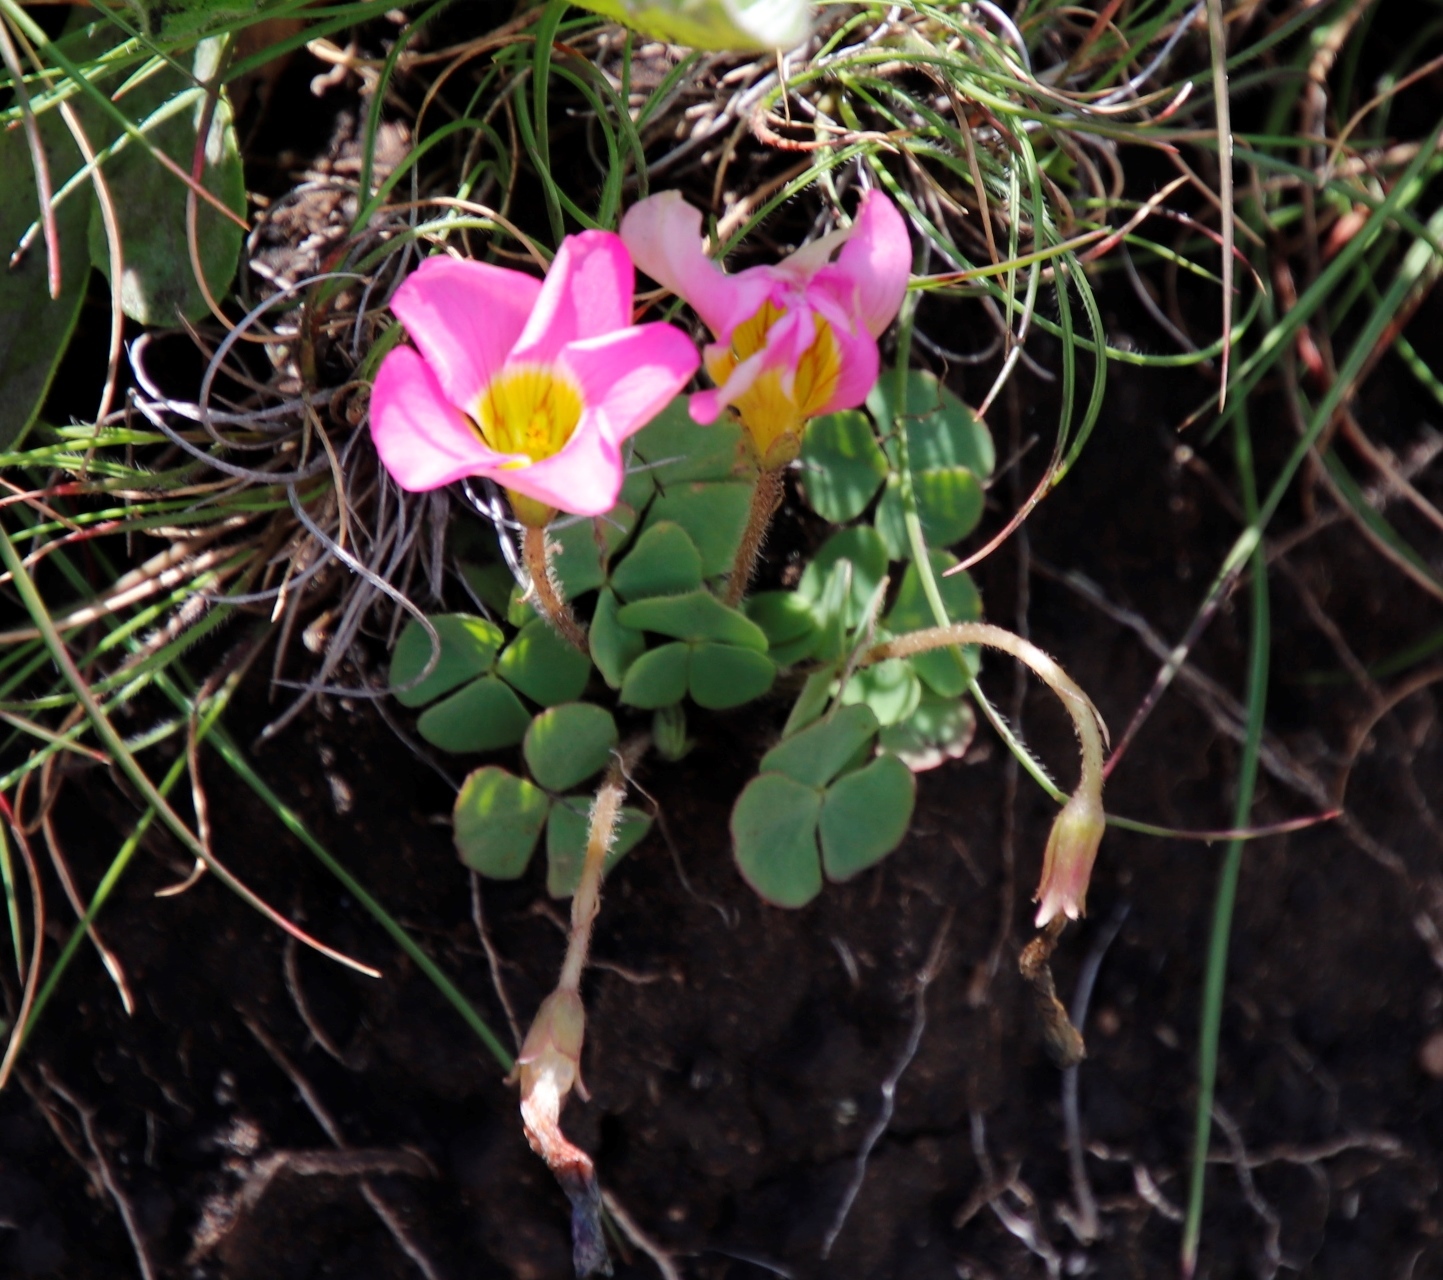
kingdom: Plantae
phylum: Tracheophyta
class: Magnoliopsida
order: Oxalidales
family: Oxalidaceae
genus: Oxalis
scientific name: Oxalis obliquifolia
